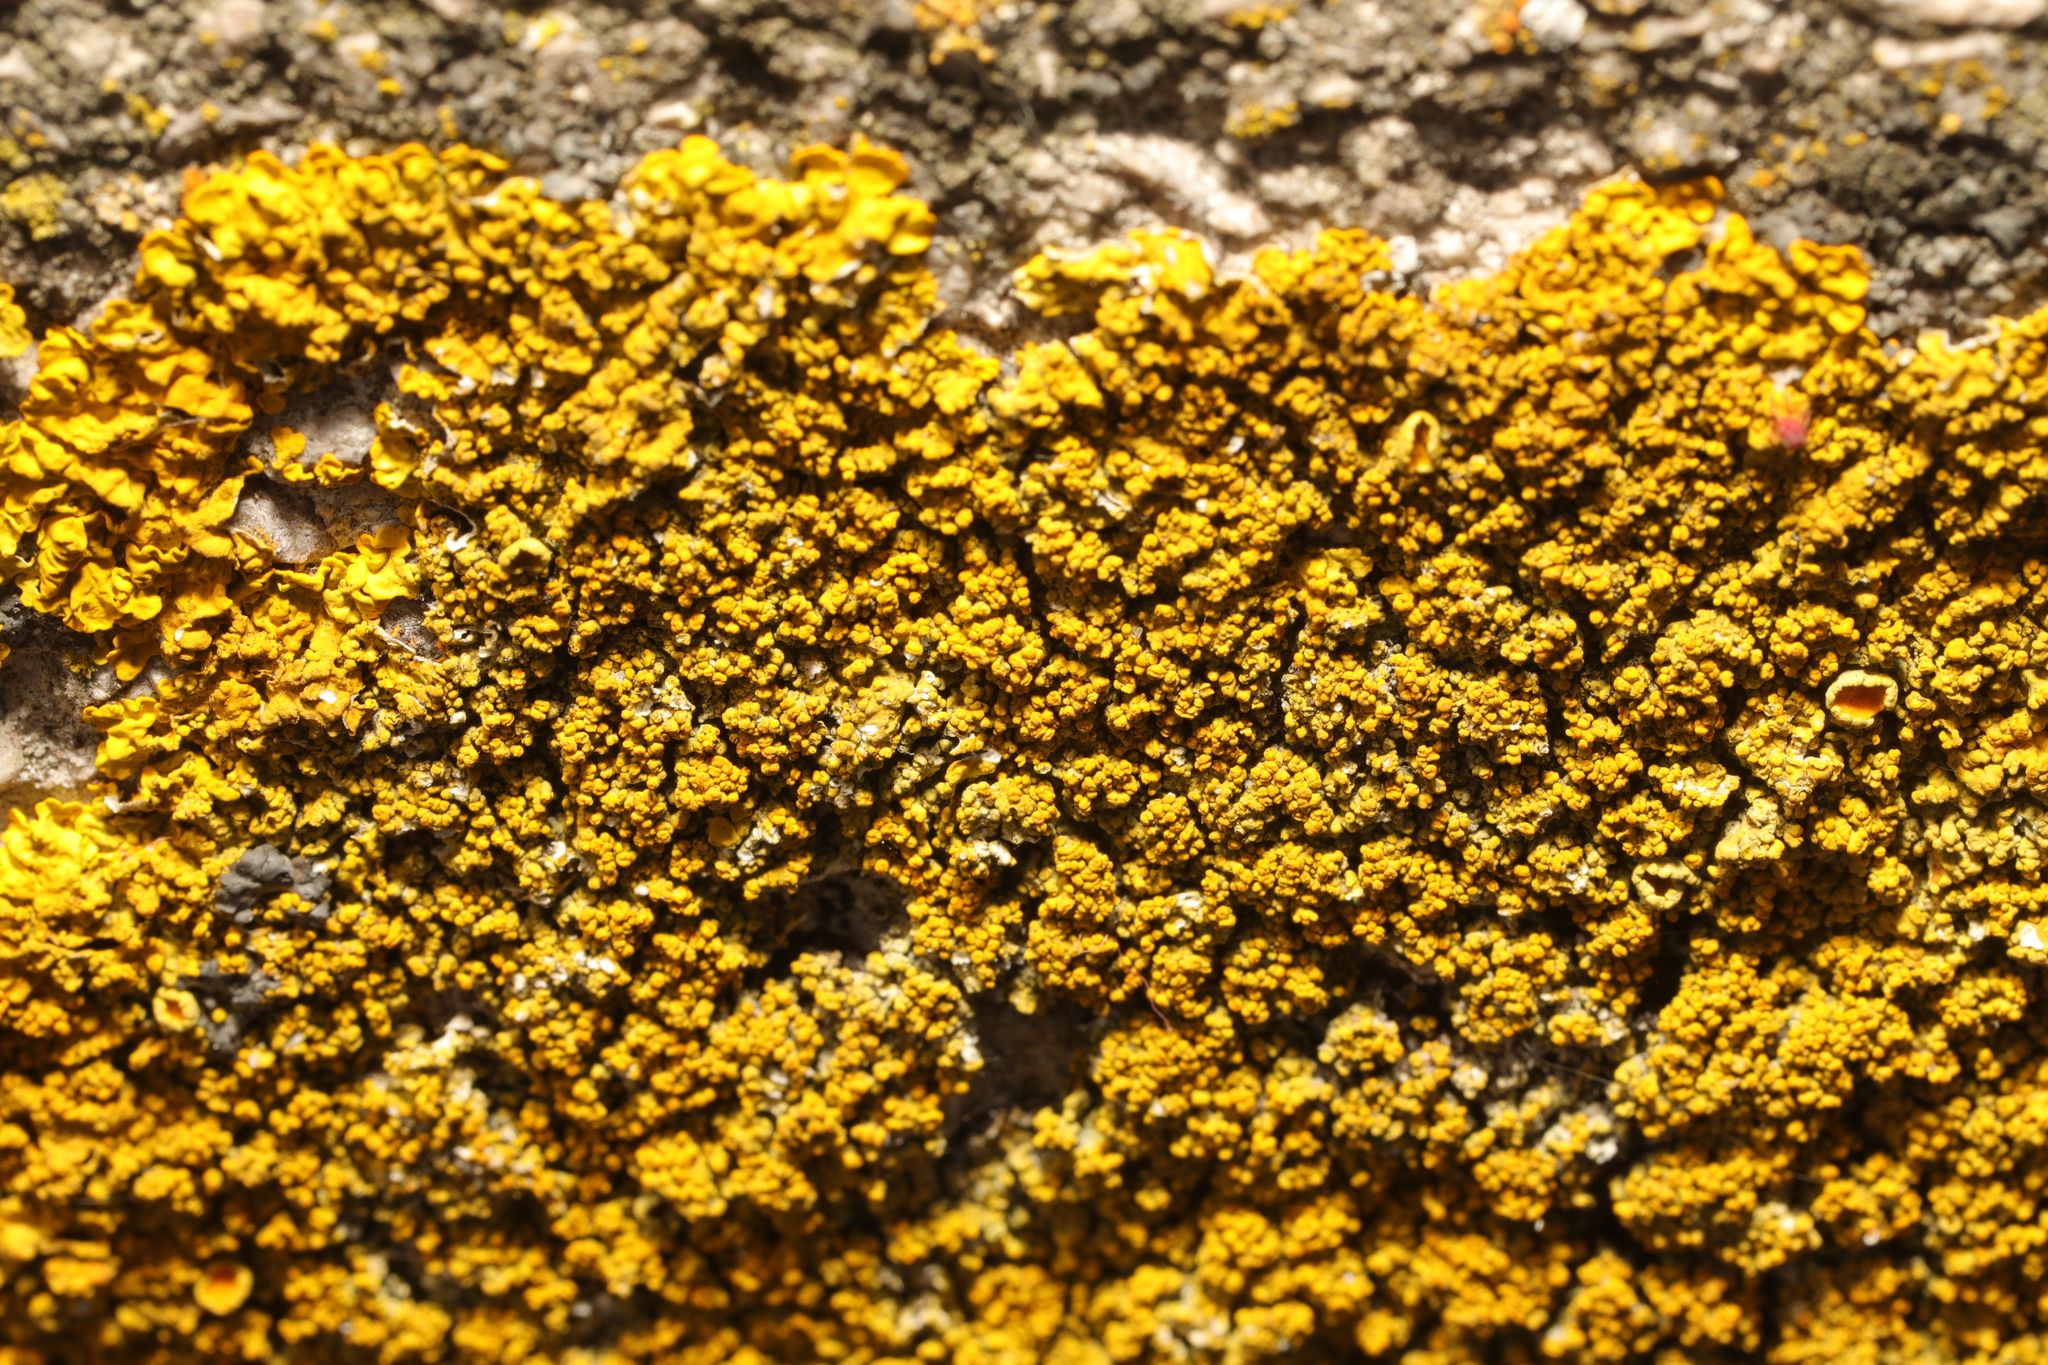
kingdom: Fungi
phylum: Ascomycota
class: Lecanoromycetes
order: Teloschistales
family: Teloschistaceae
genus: Xanthoria
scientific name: Xanthoria calcicola
